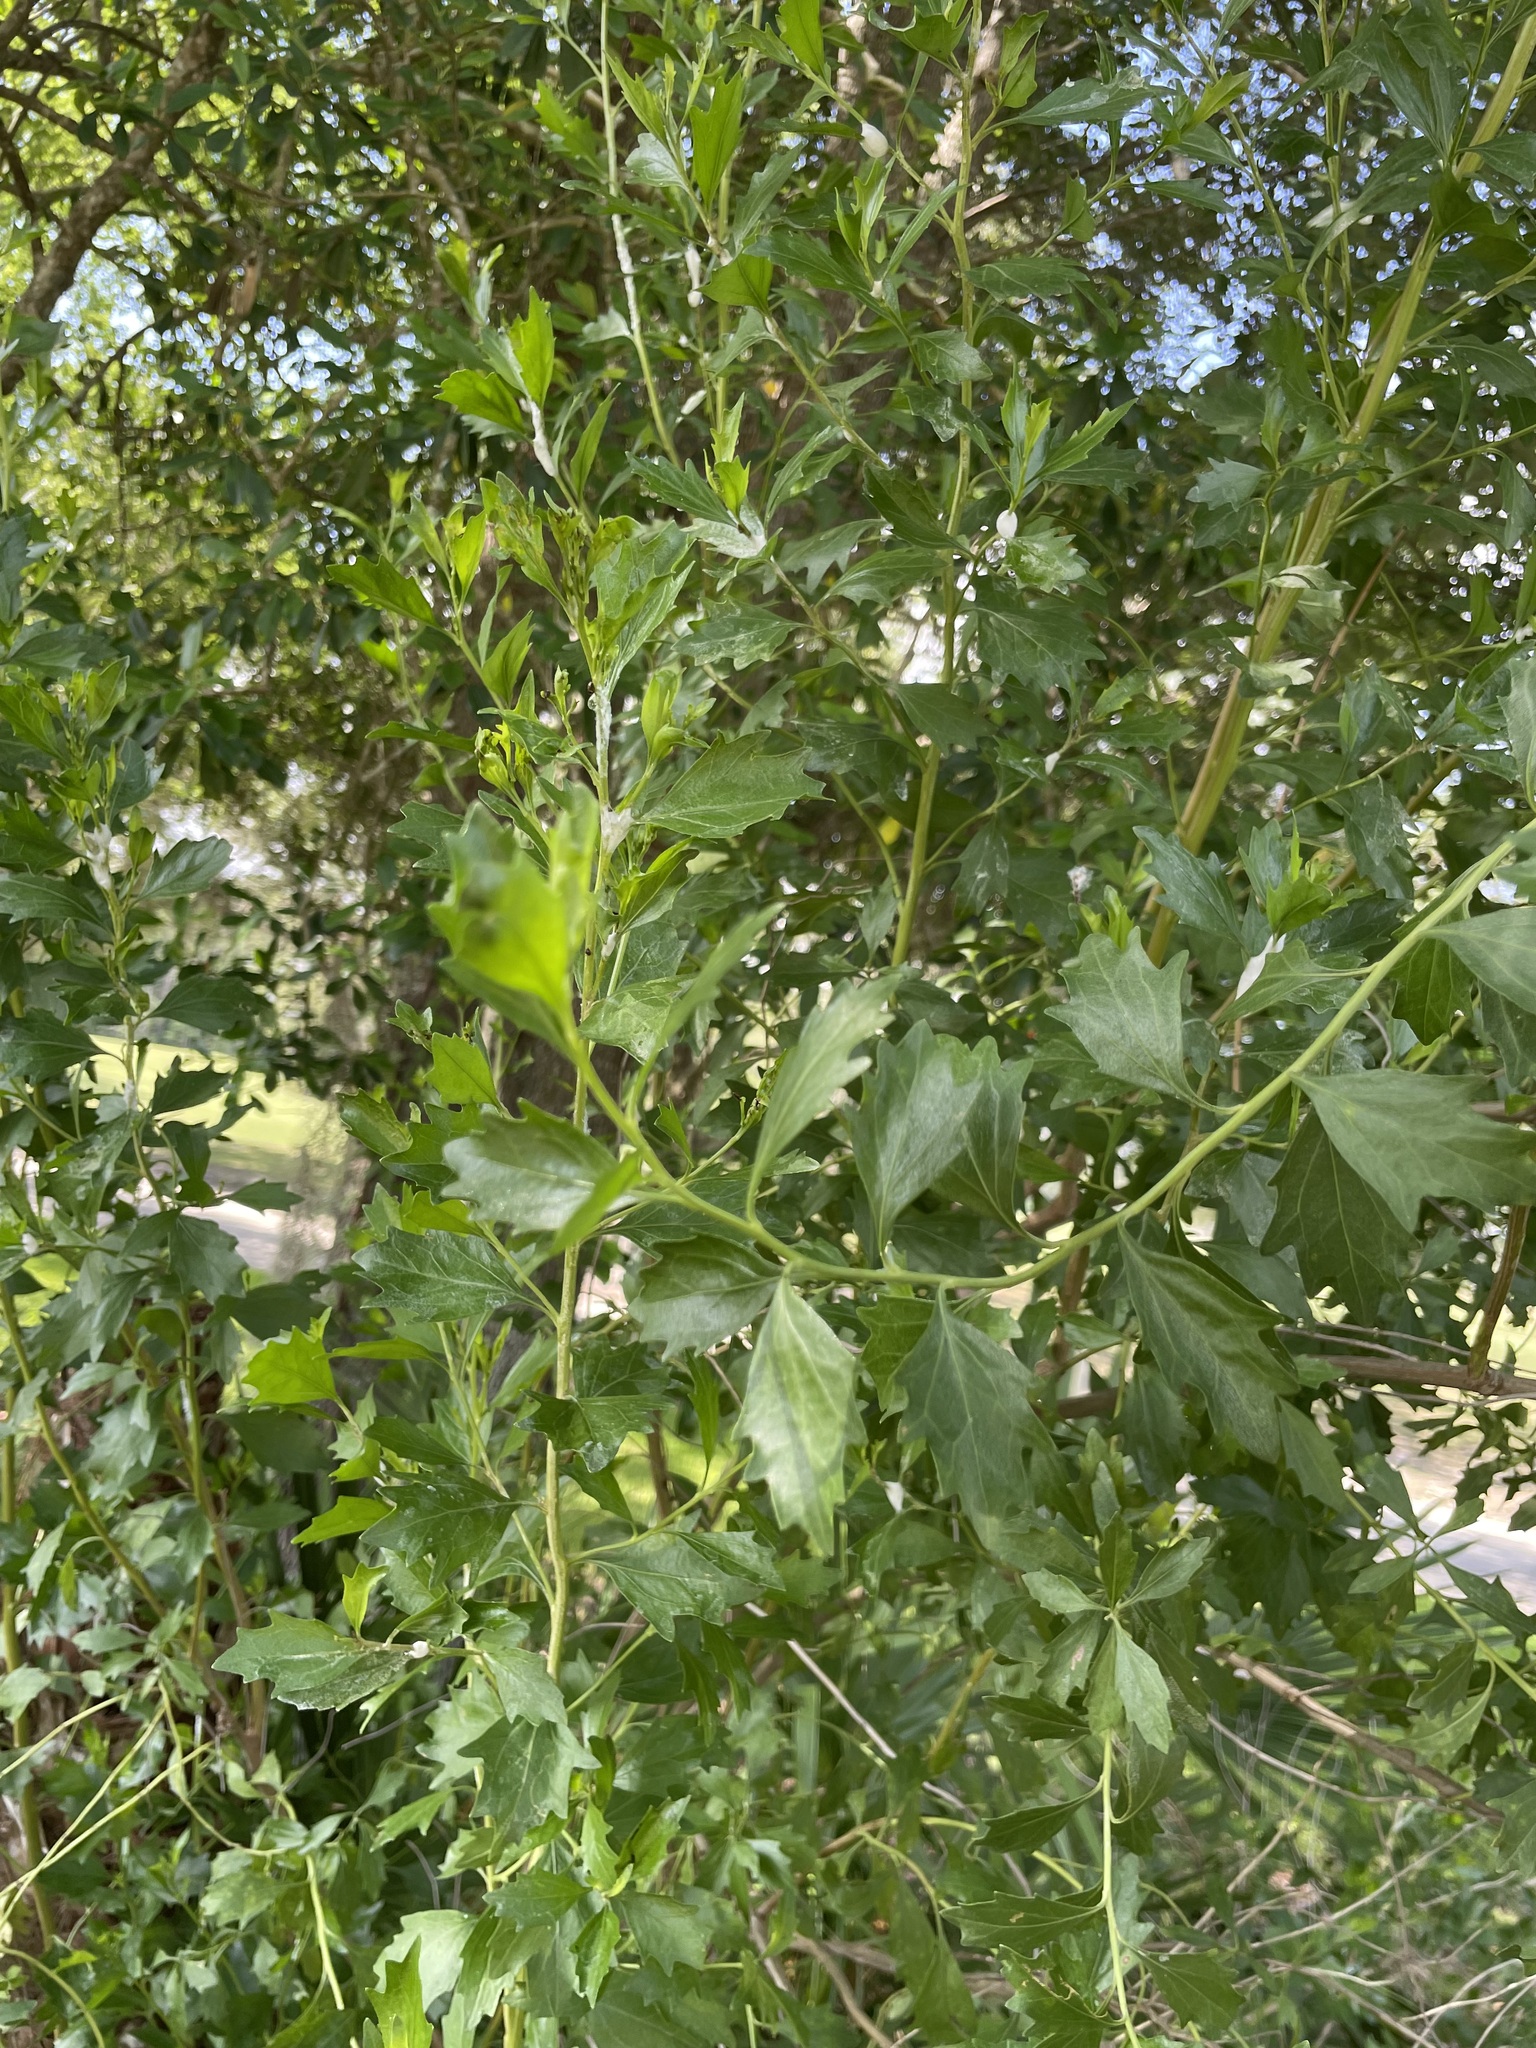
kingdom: Plantae
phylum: Tracheophyta
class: Magnoliopsida
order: Asterales
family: Asteraceae
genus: Baccharis
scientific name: Baccharis halimifolia
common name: Eastern baccharis
